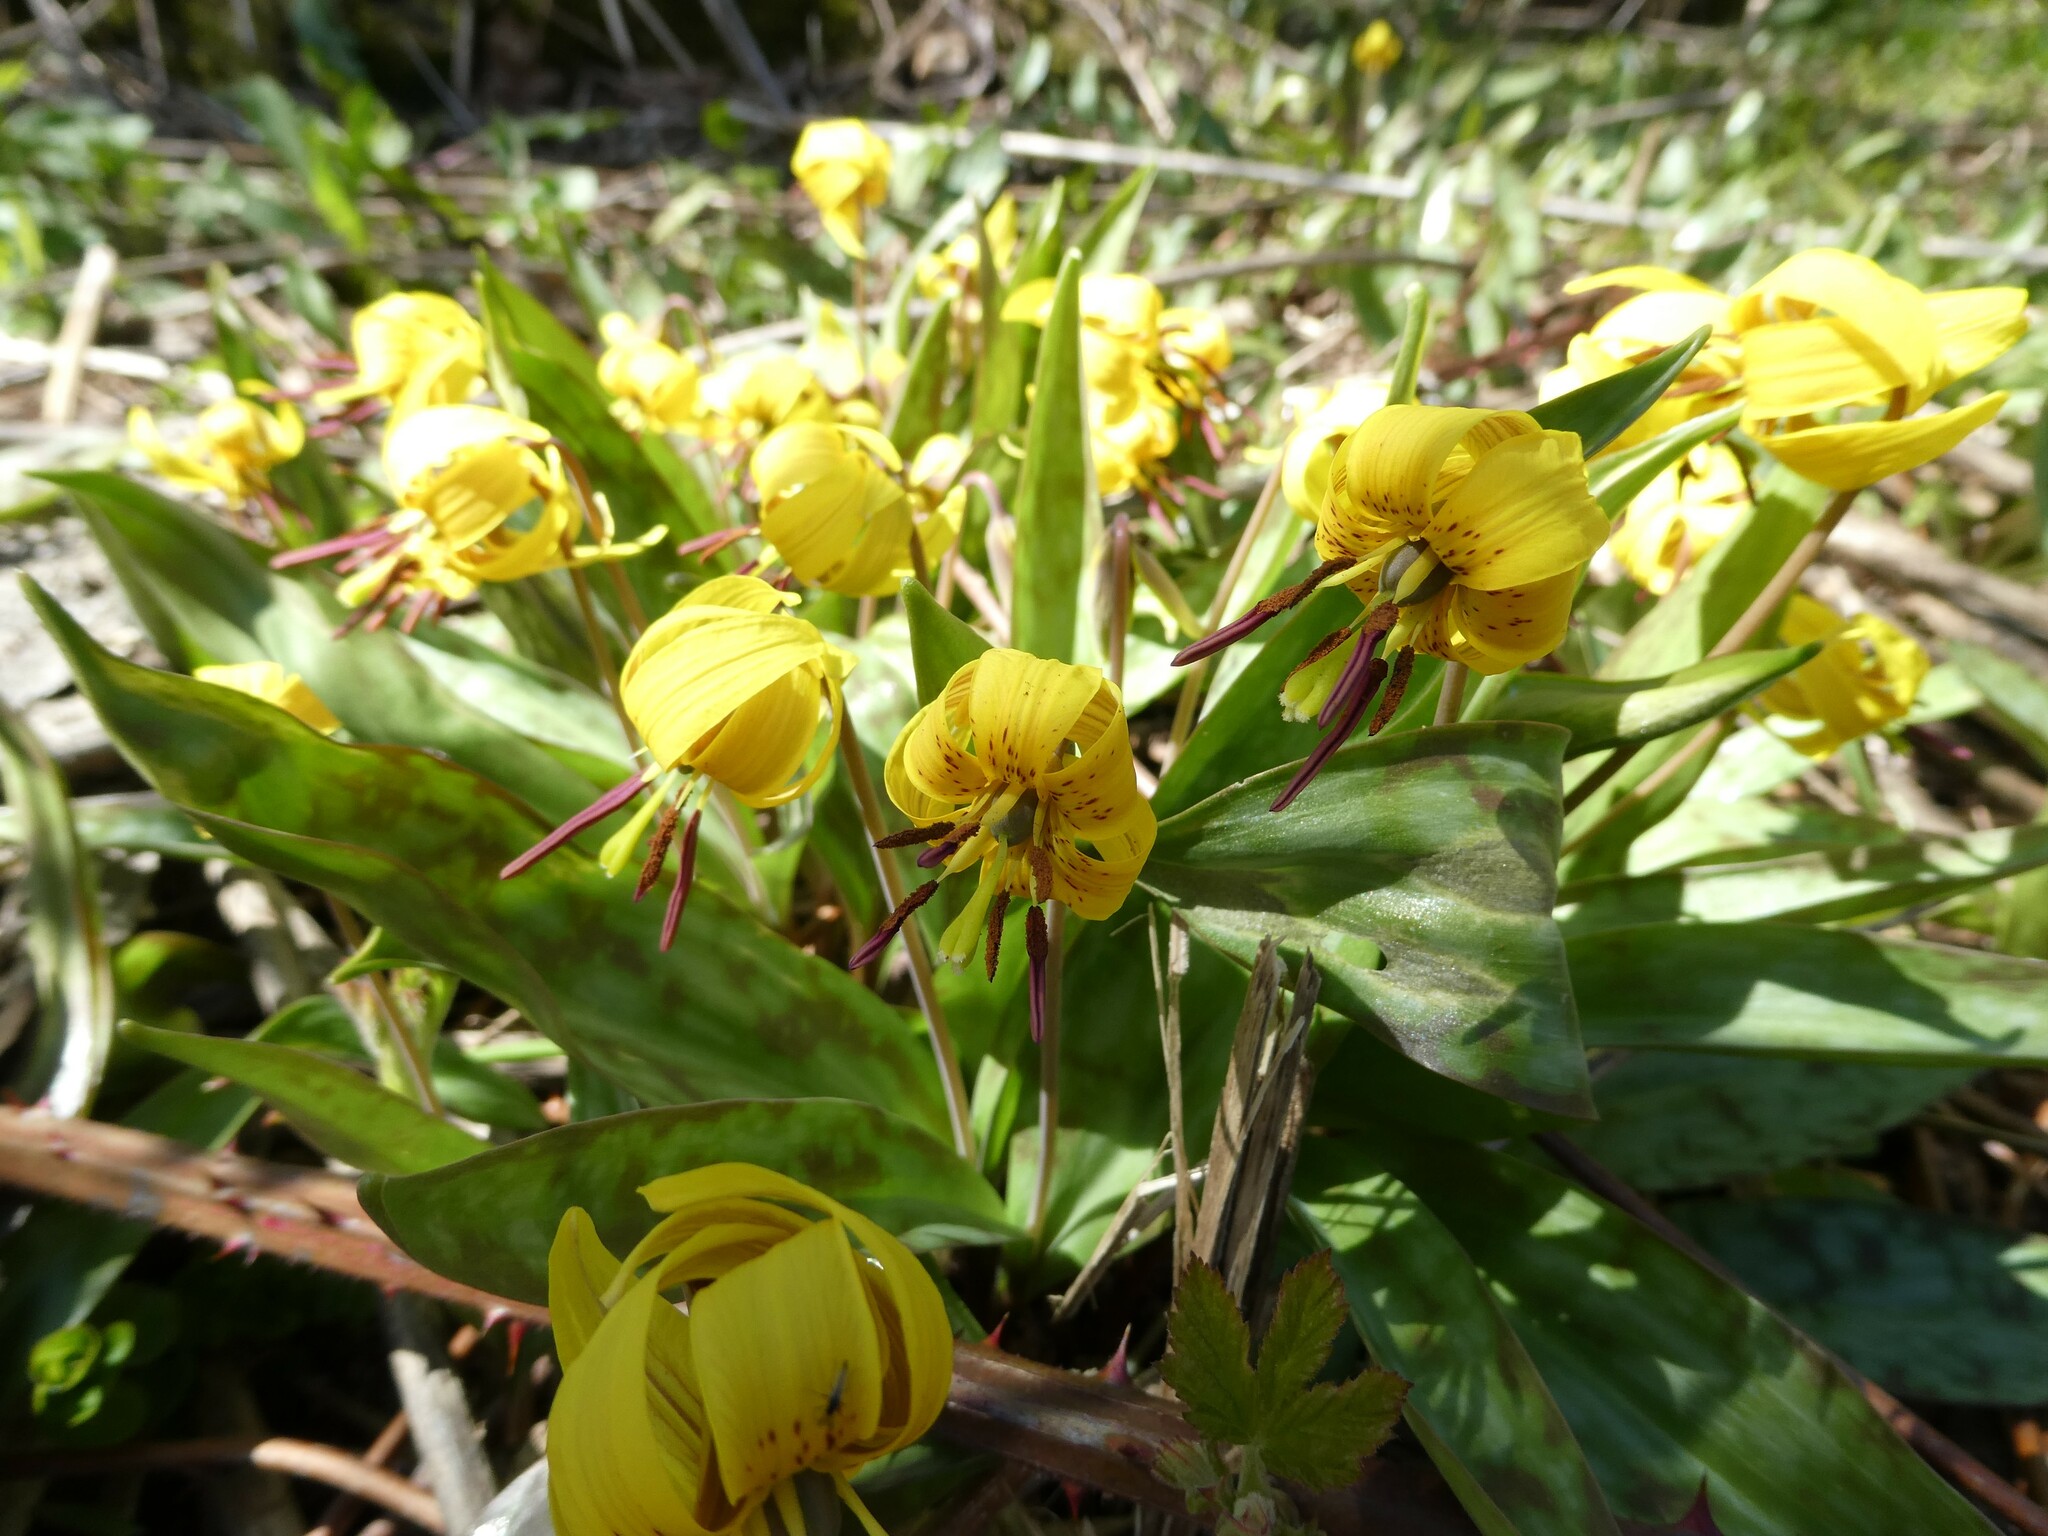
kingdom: Plantae
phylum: Tracheophyta
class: Liliopsida
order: Liliales
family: Liliaceae
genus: Erythronium
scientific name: Erythronium americanum
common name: Yellow adder's-tongue
